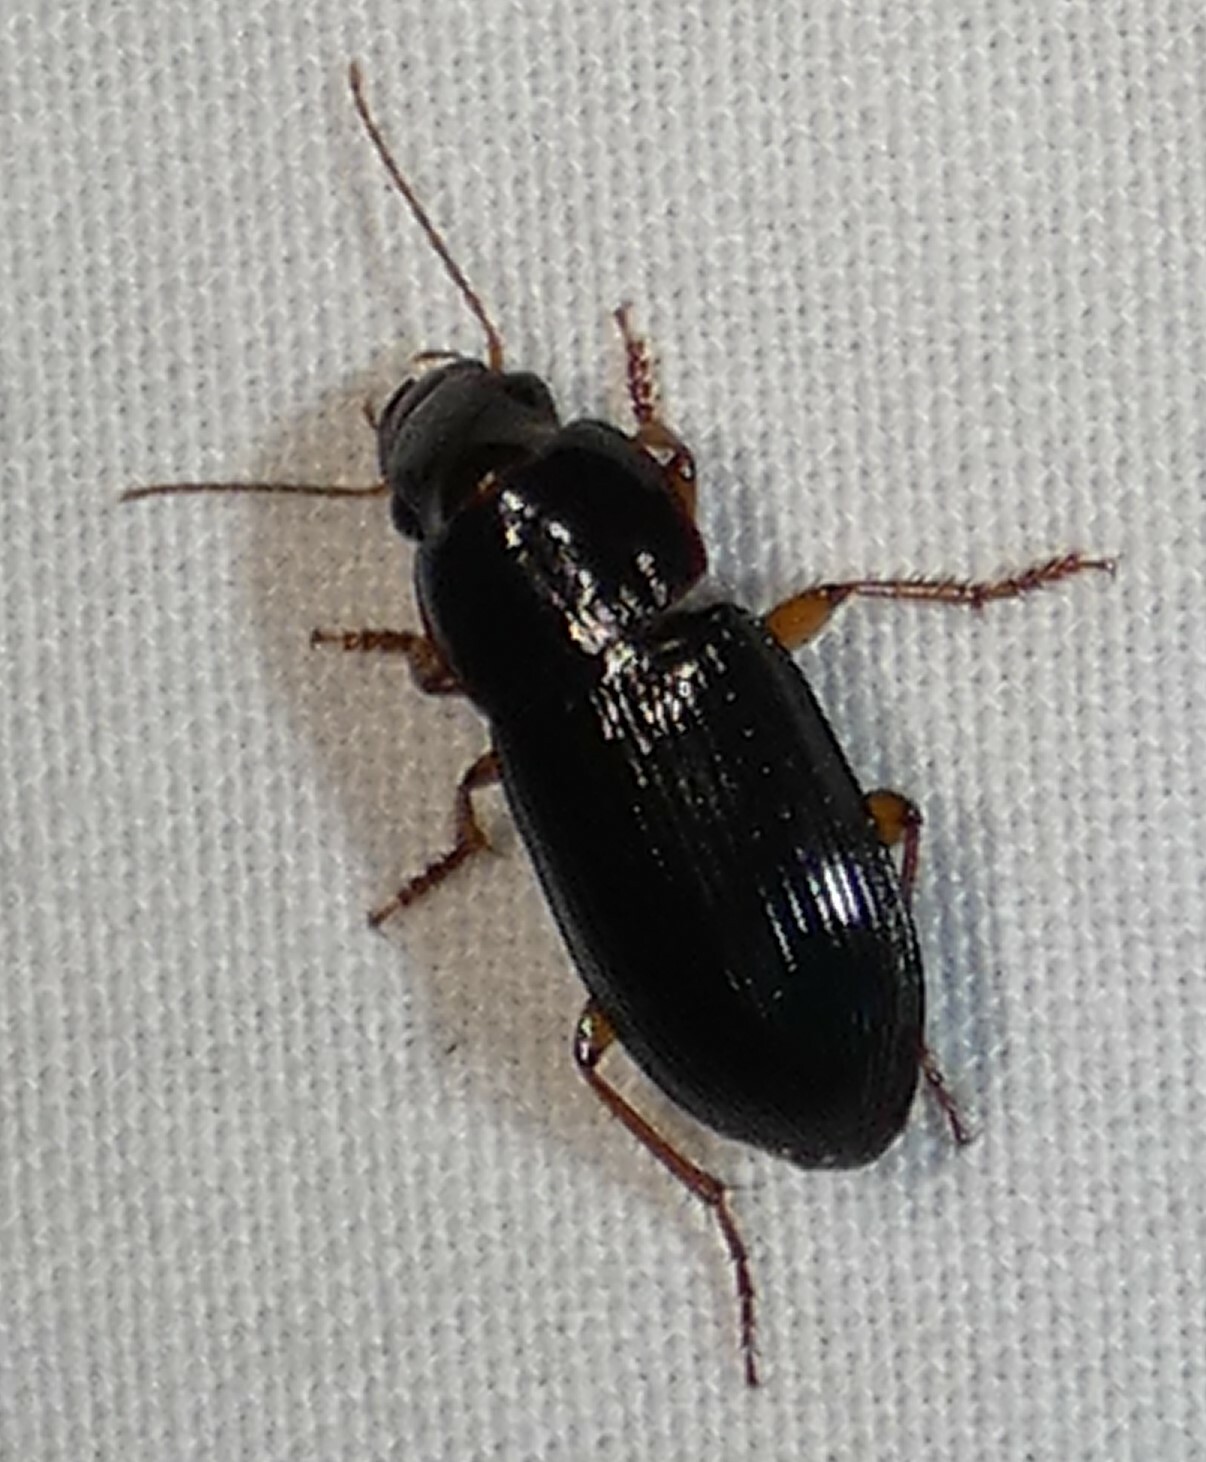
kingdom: Animalia
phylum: Arthropoda
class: Insecta
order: Coleoptera
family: Carabidae
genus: Selenophorus
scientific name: Selenophorus opalinus
